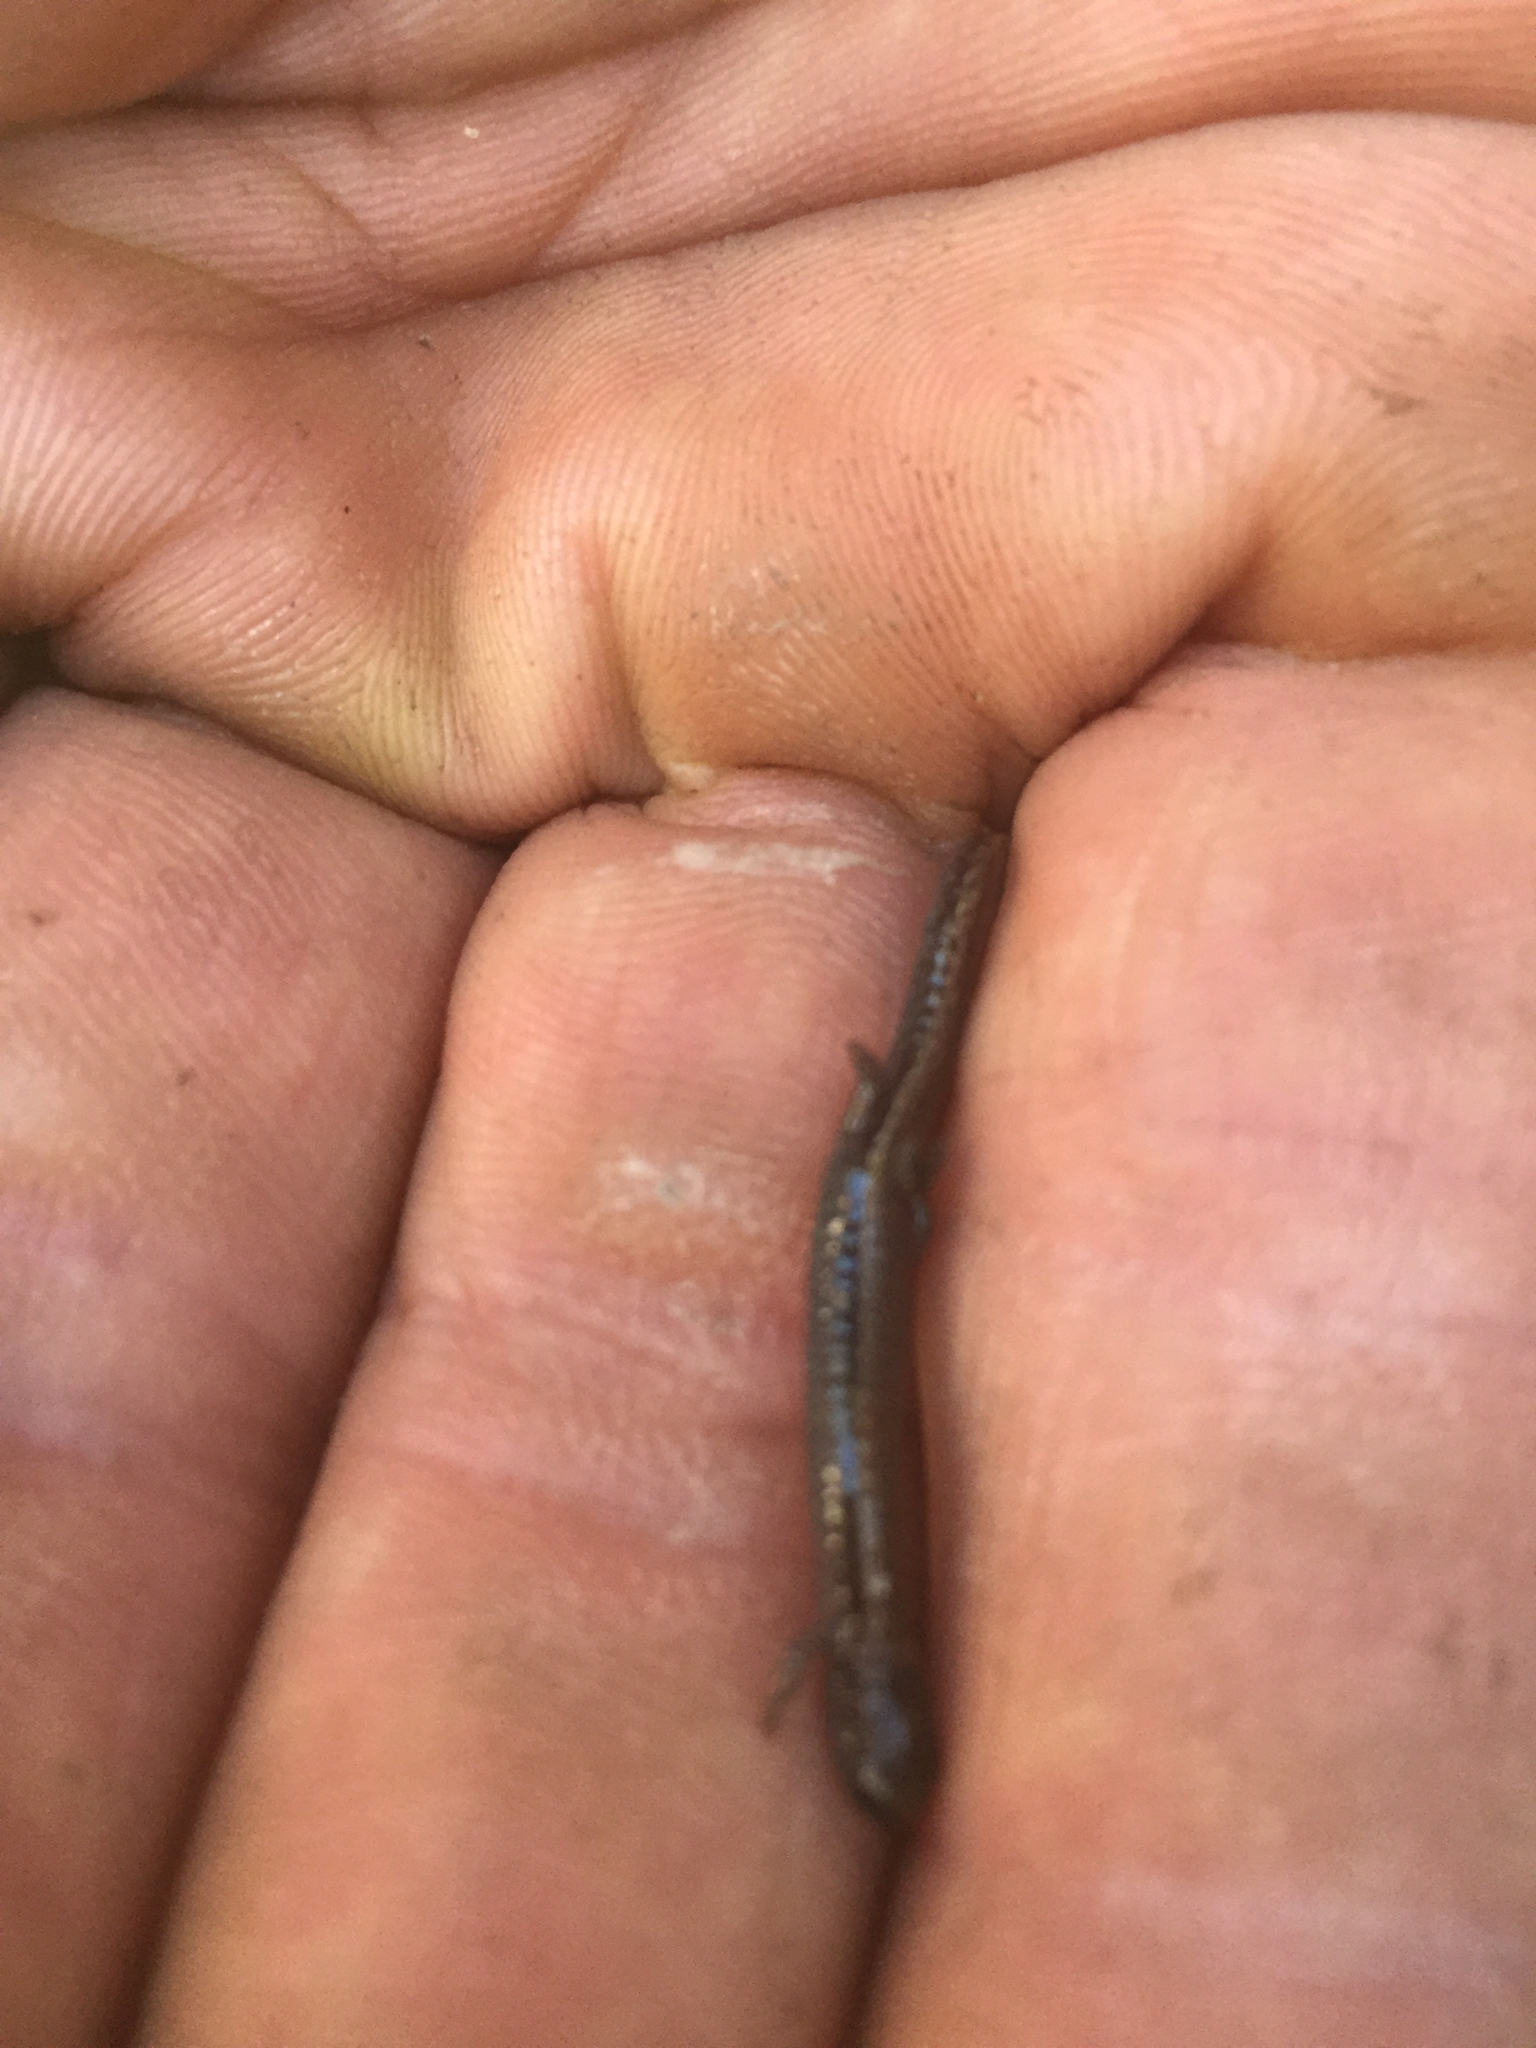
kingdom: Animalia
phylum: Chordata
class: Amphibia
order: Caudata
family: Plethodontidae
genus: Batrachoseps
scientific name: Batrachoseps attenuatus
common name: California slender salamander
